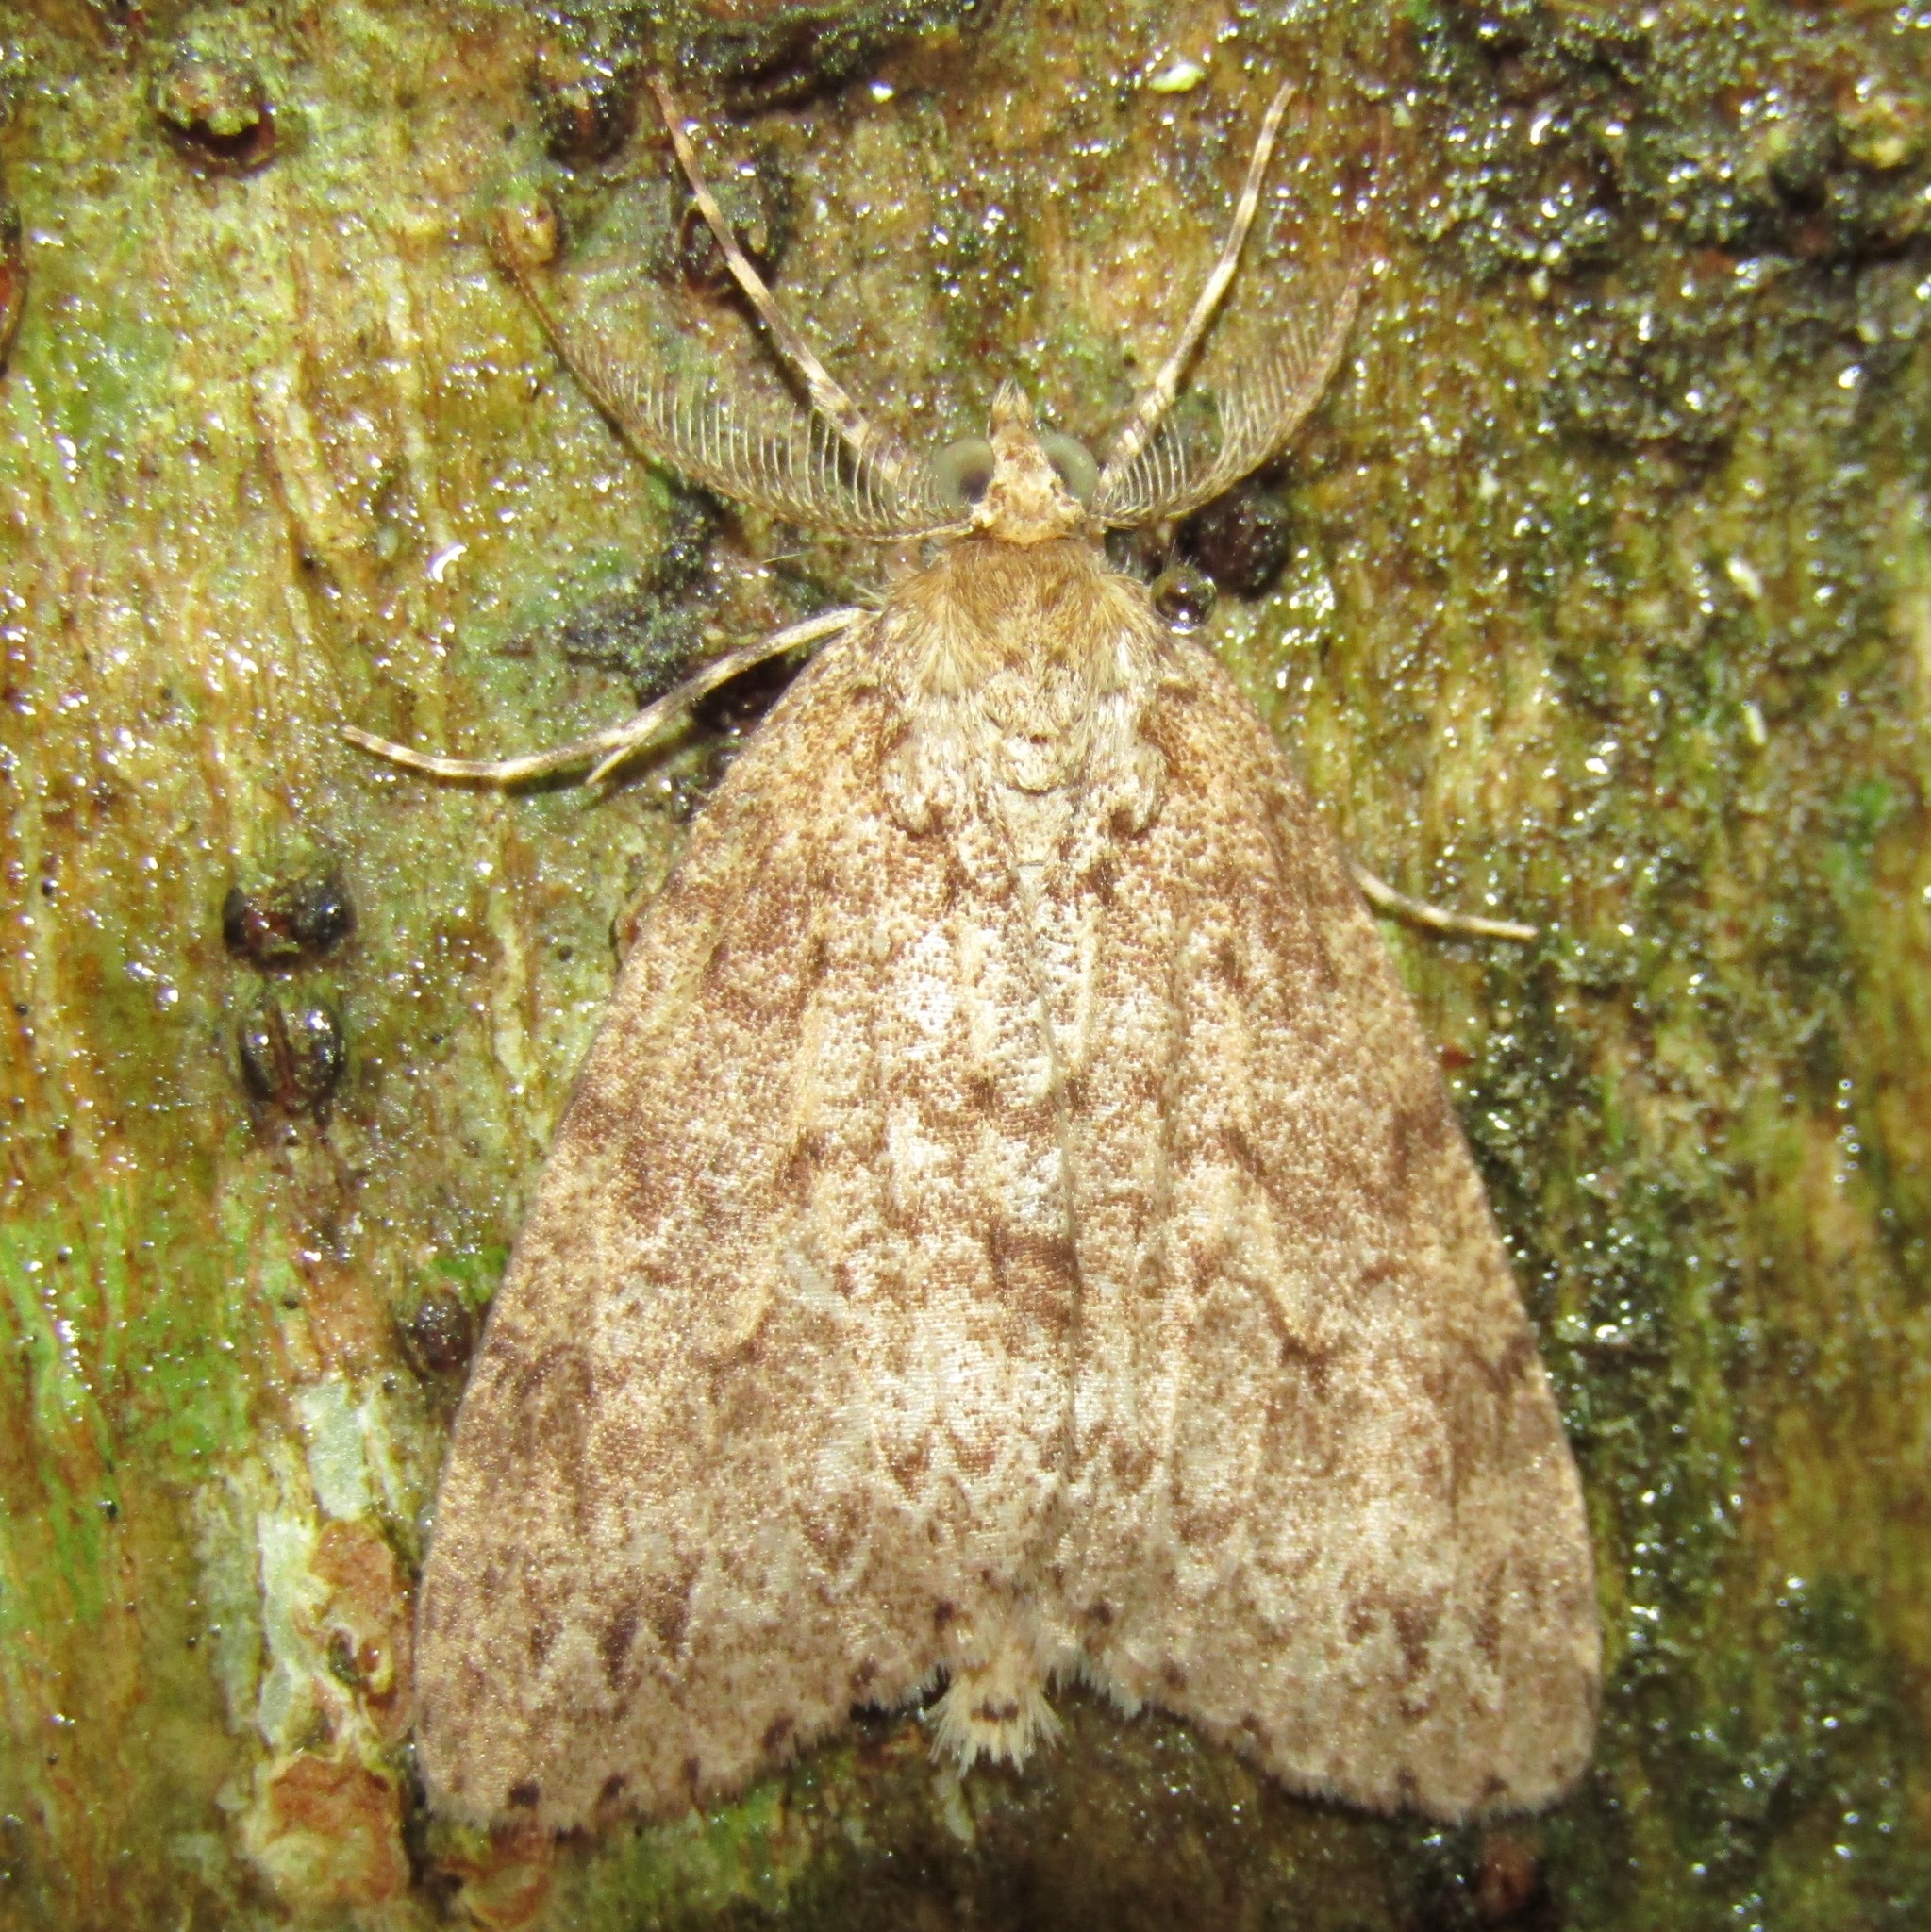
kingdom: Animalia
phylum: Arthropoda
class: Insecta
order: Lepidoptera
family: Geometridae
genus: Pseudocoremia
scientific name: Pseudocoremia fenerata
